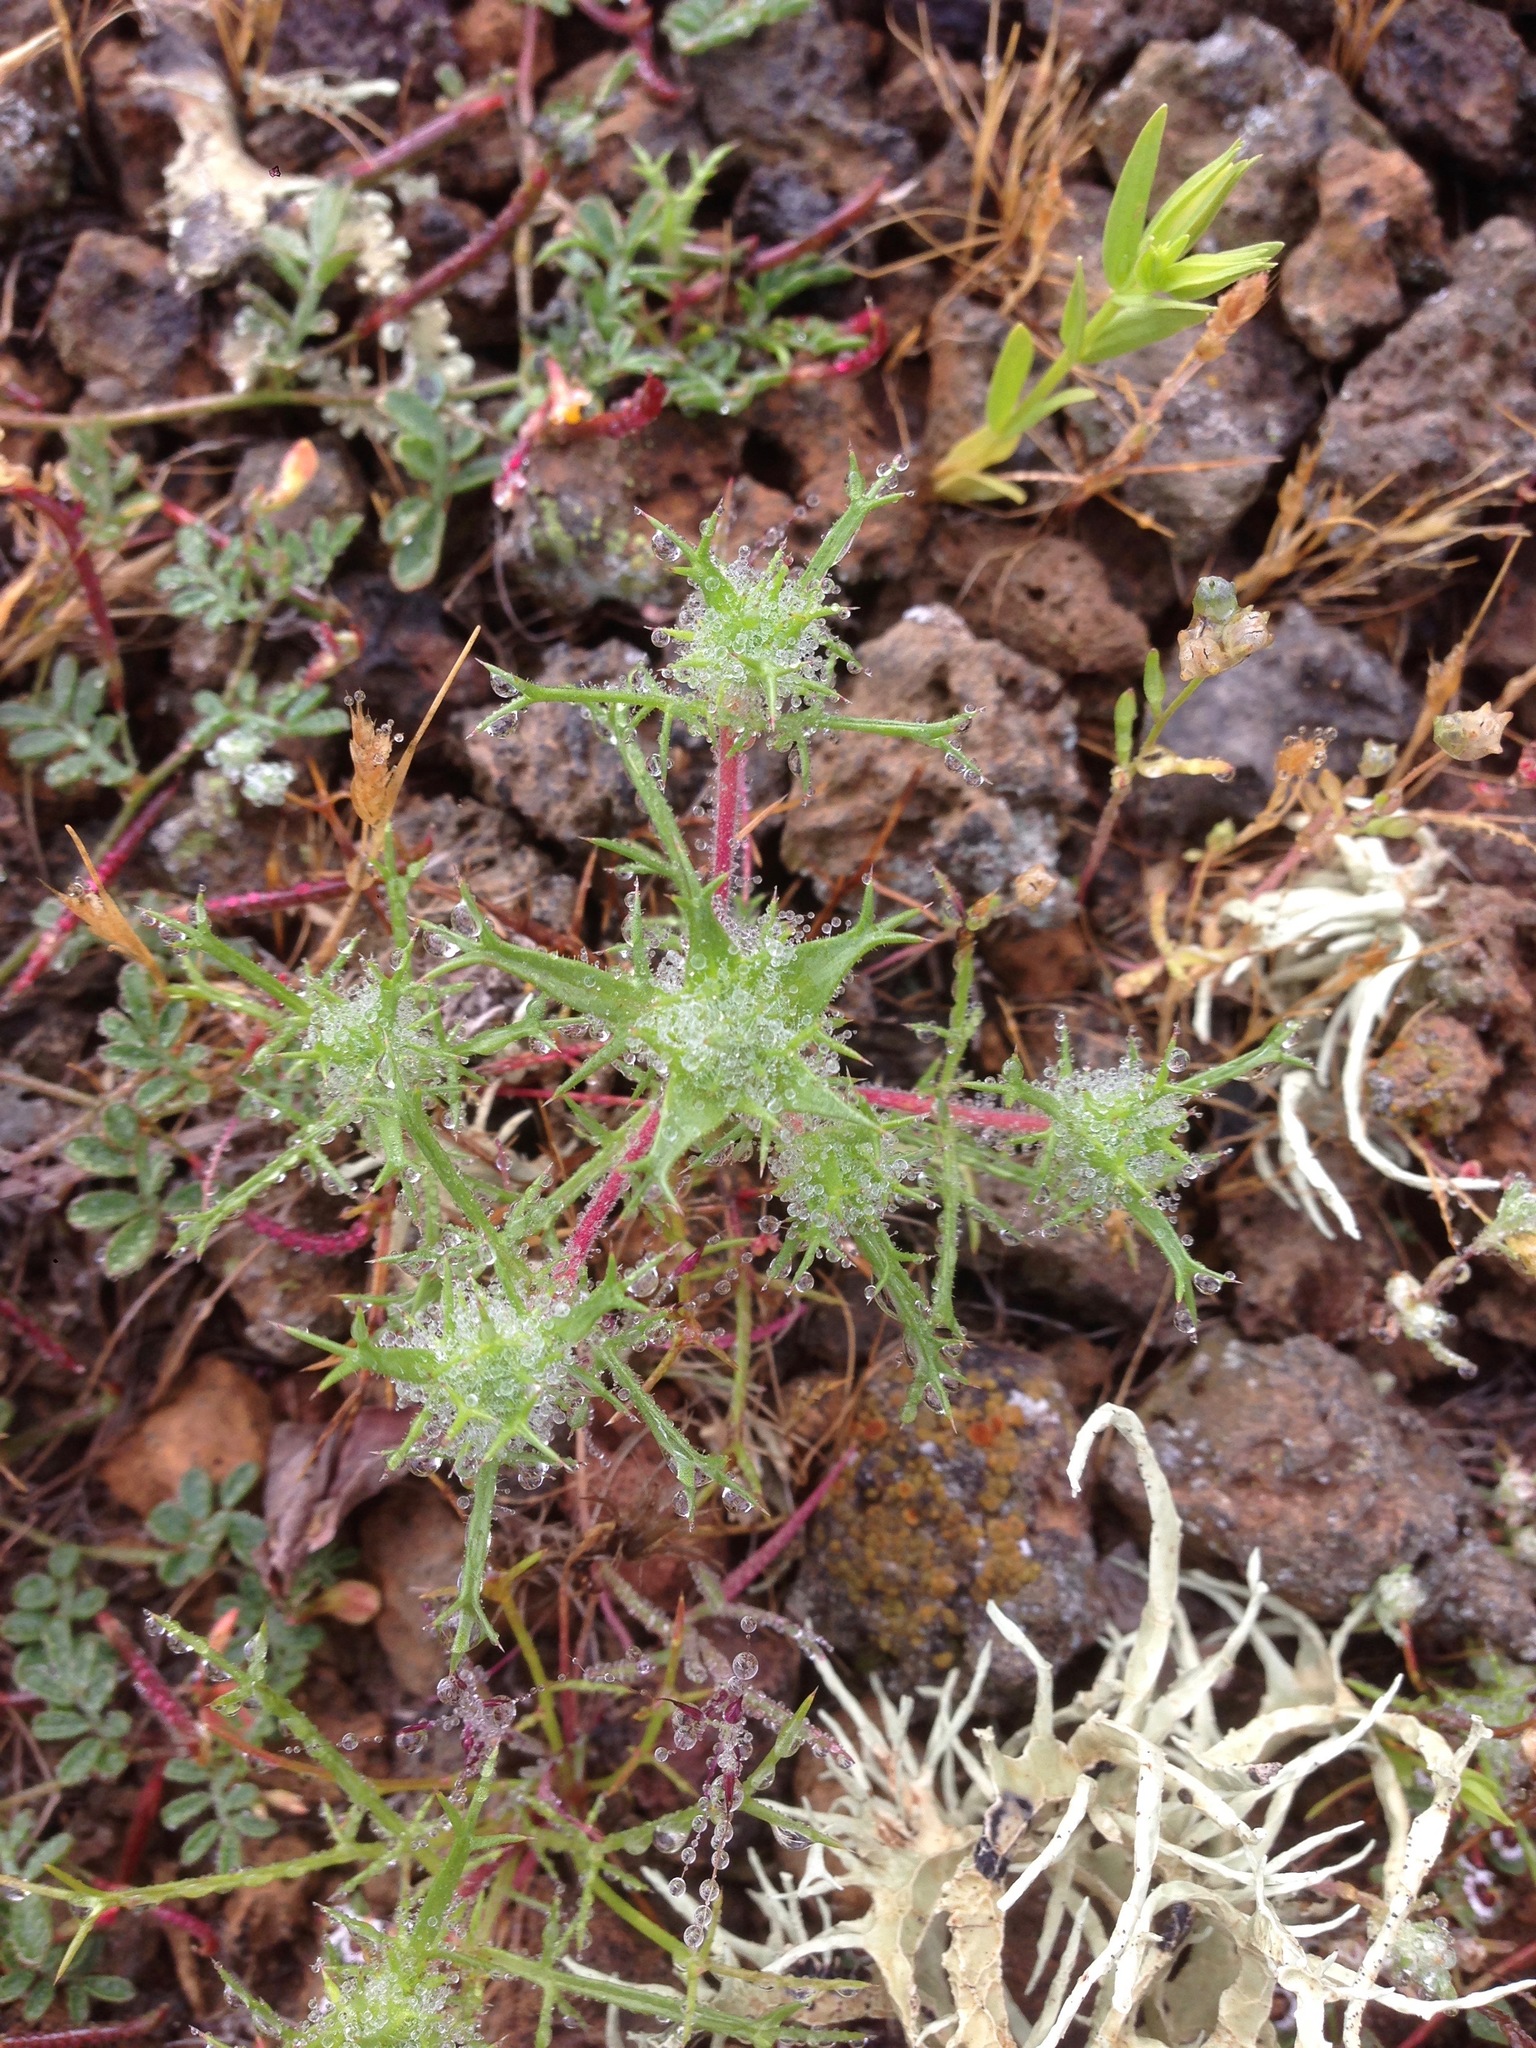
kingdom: Plantae
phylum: Tracheophyta
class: Magnoliopsida
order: Ericales
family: Polemoniaceae
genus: Navarretia
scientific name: Navarretia hamata
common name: Hooked navarretia
